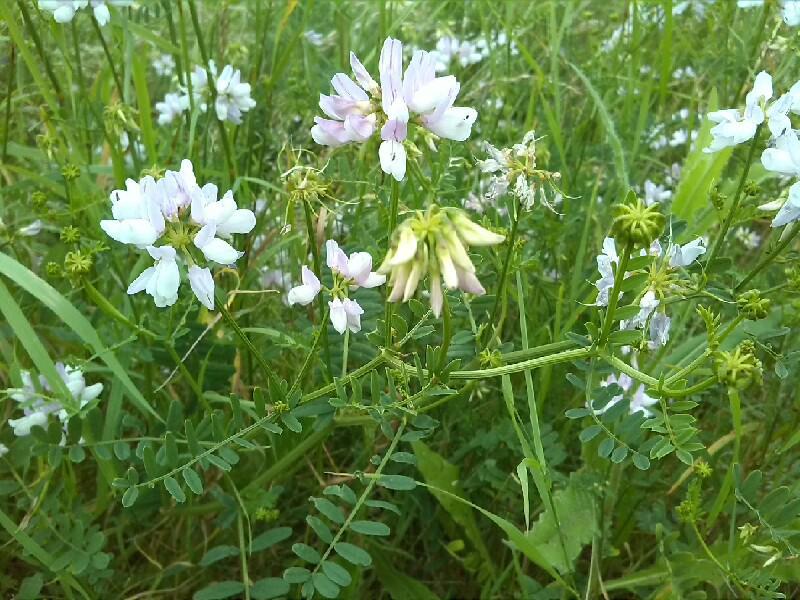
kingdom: Plantae
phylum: Tracheophyta
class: Magnoliopsida
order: Fabales
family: Fabaceae
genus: Coronilla
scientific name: Coronilla varia
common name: Crownvetch
